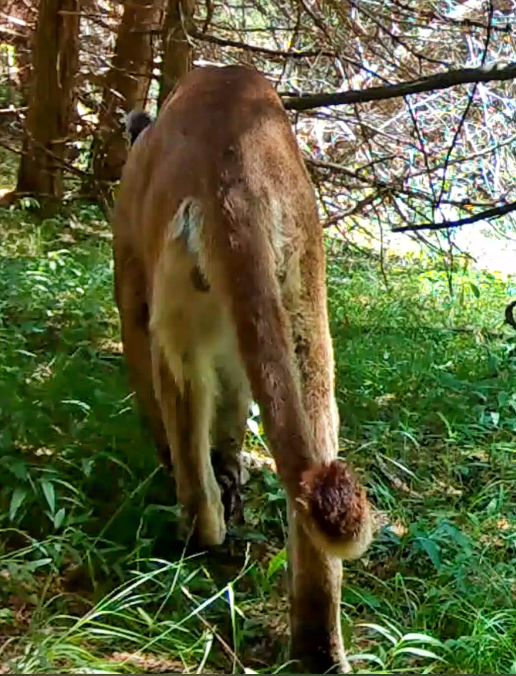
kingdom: Animalia
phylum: Chordata
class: Mammalia
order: Carnivora
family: Felidae
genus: Puma
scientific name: Puma concolor
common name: Puma
